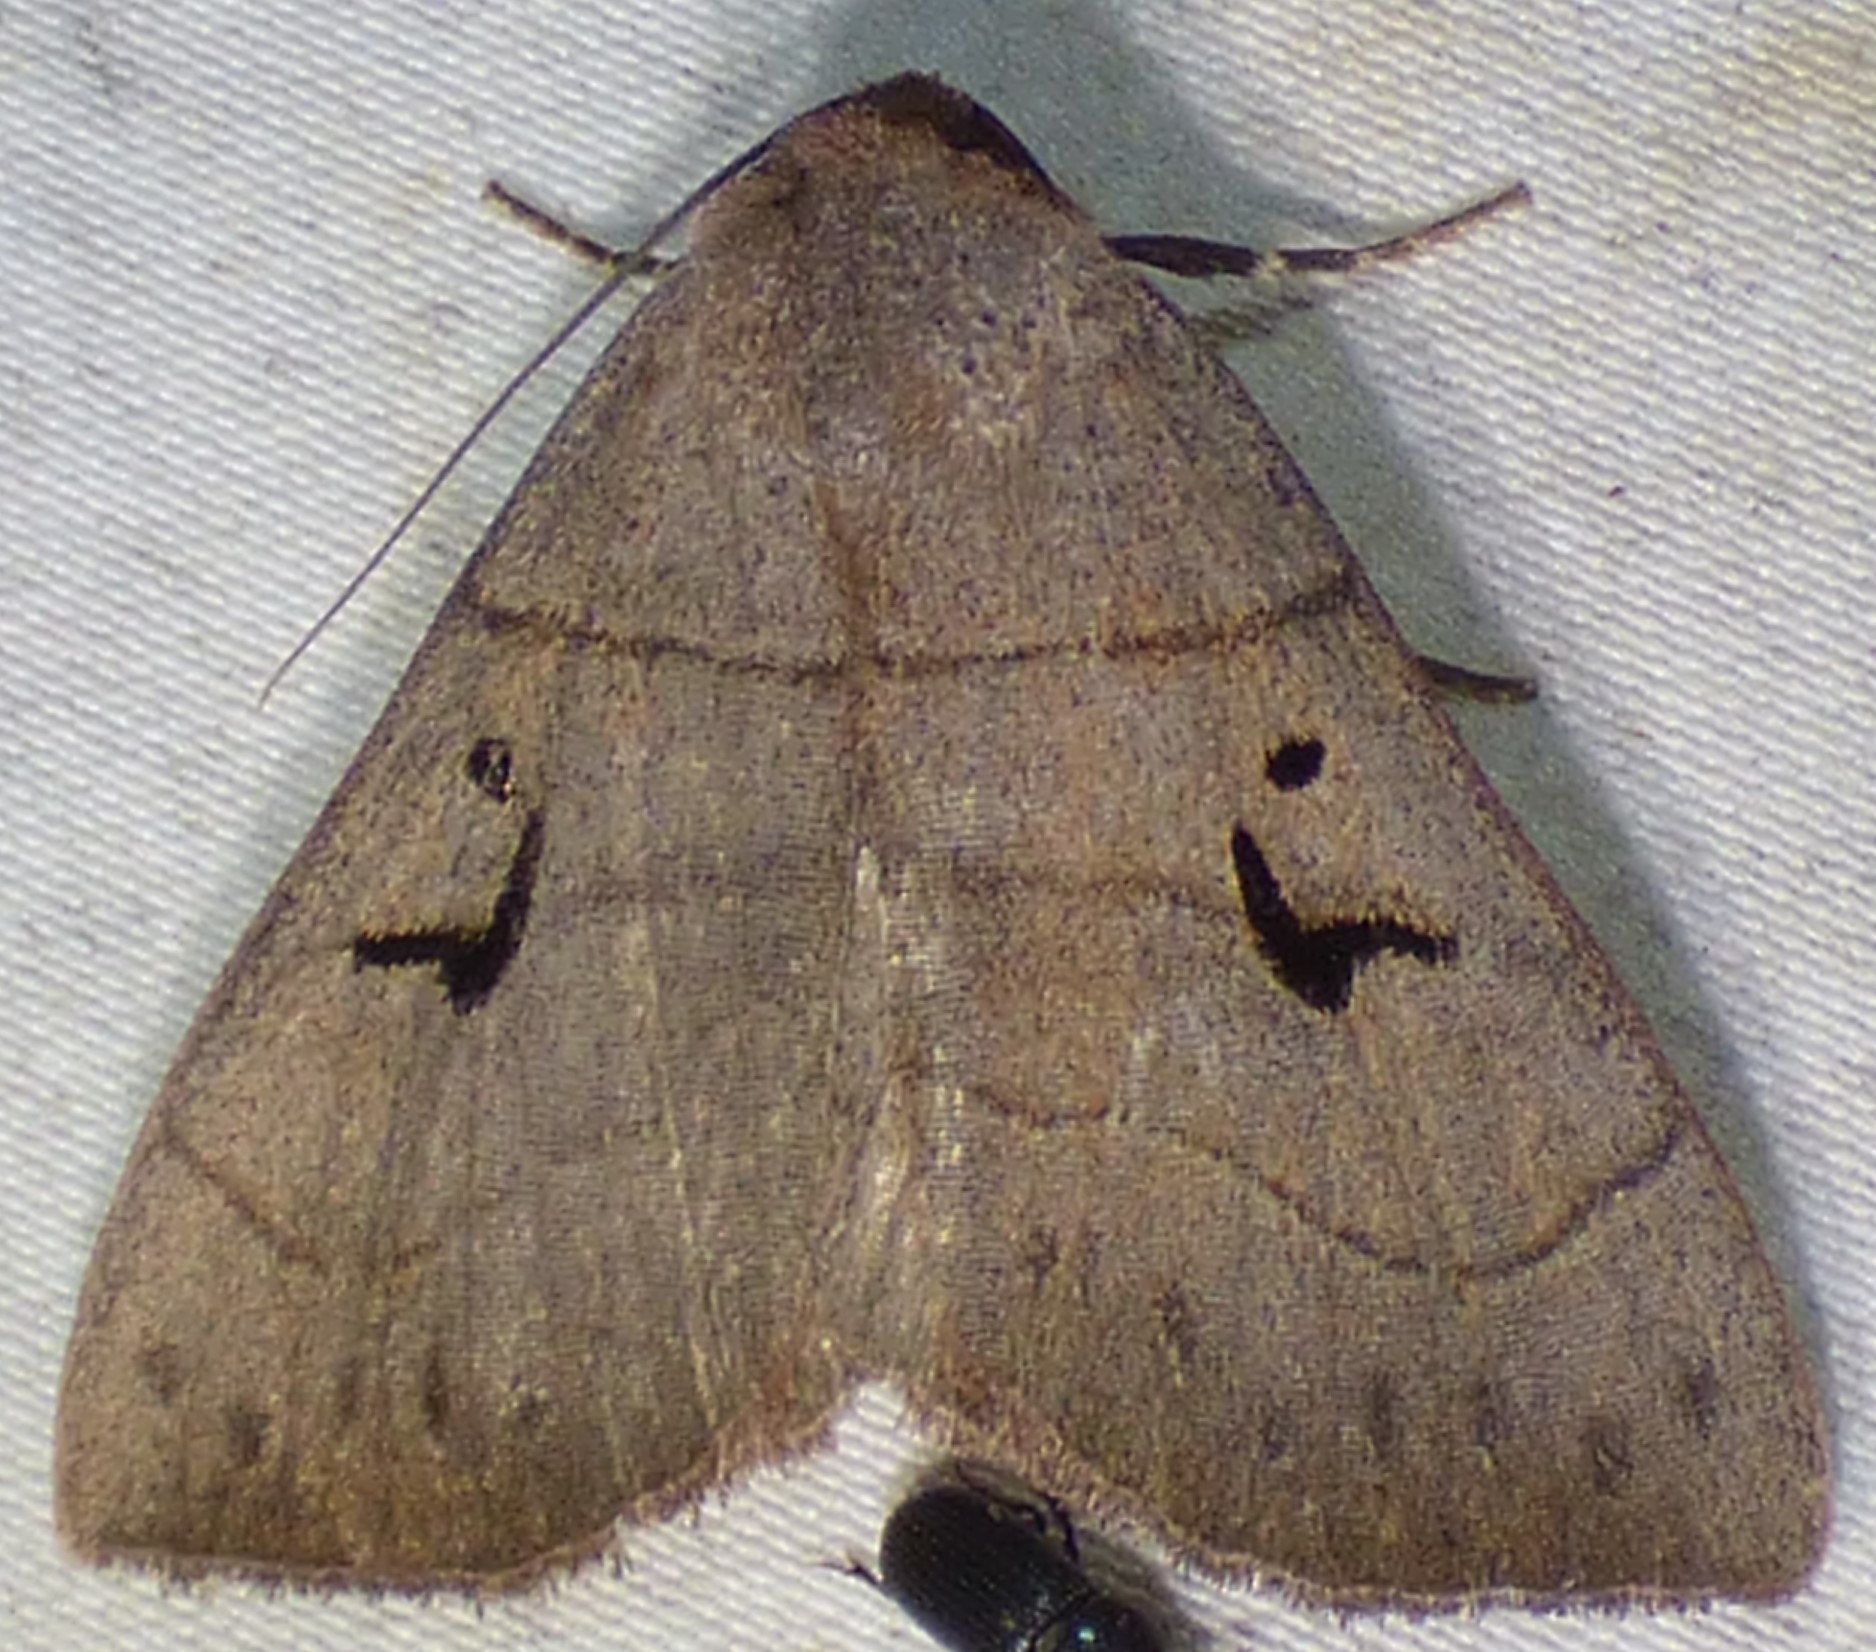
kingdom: Animalia
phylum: Arthropoda
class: Insecta
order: Lepidoptera
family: Erebidae
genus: Panopoda
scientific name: Panopoda carneicosta
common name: Brown panopoda moth
